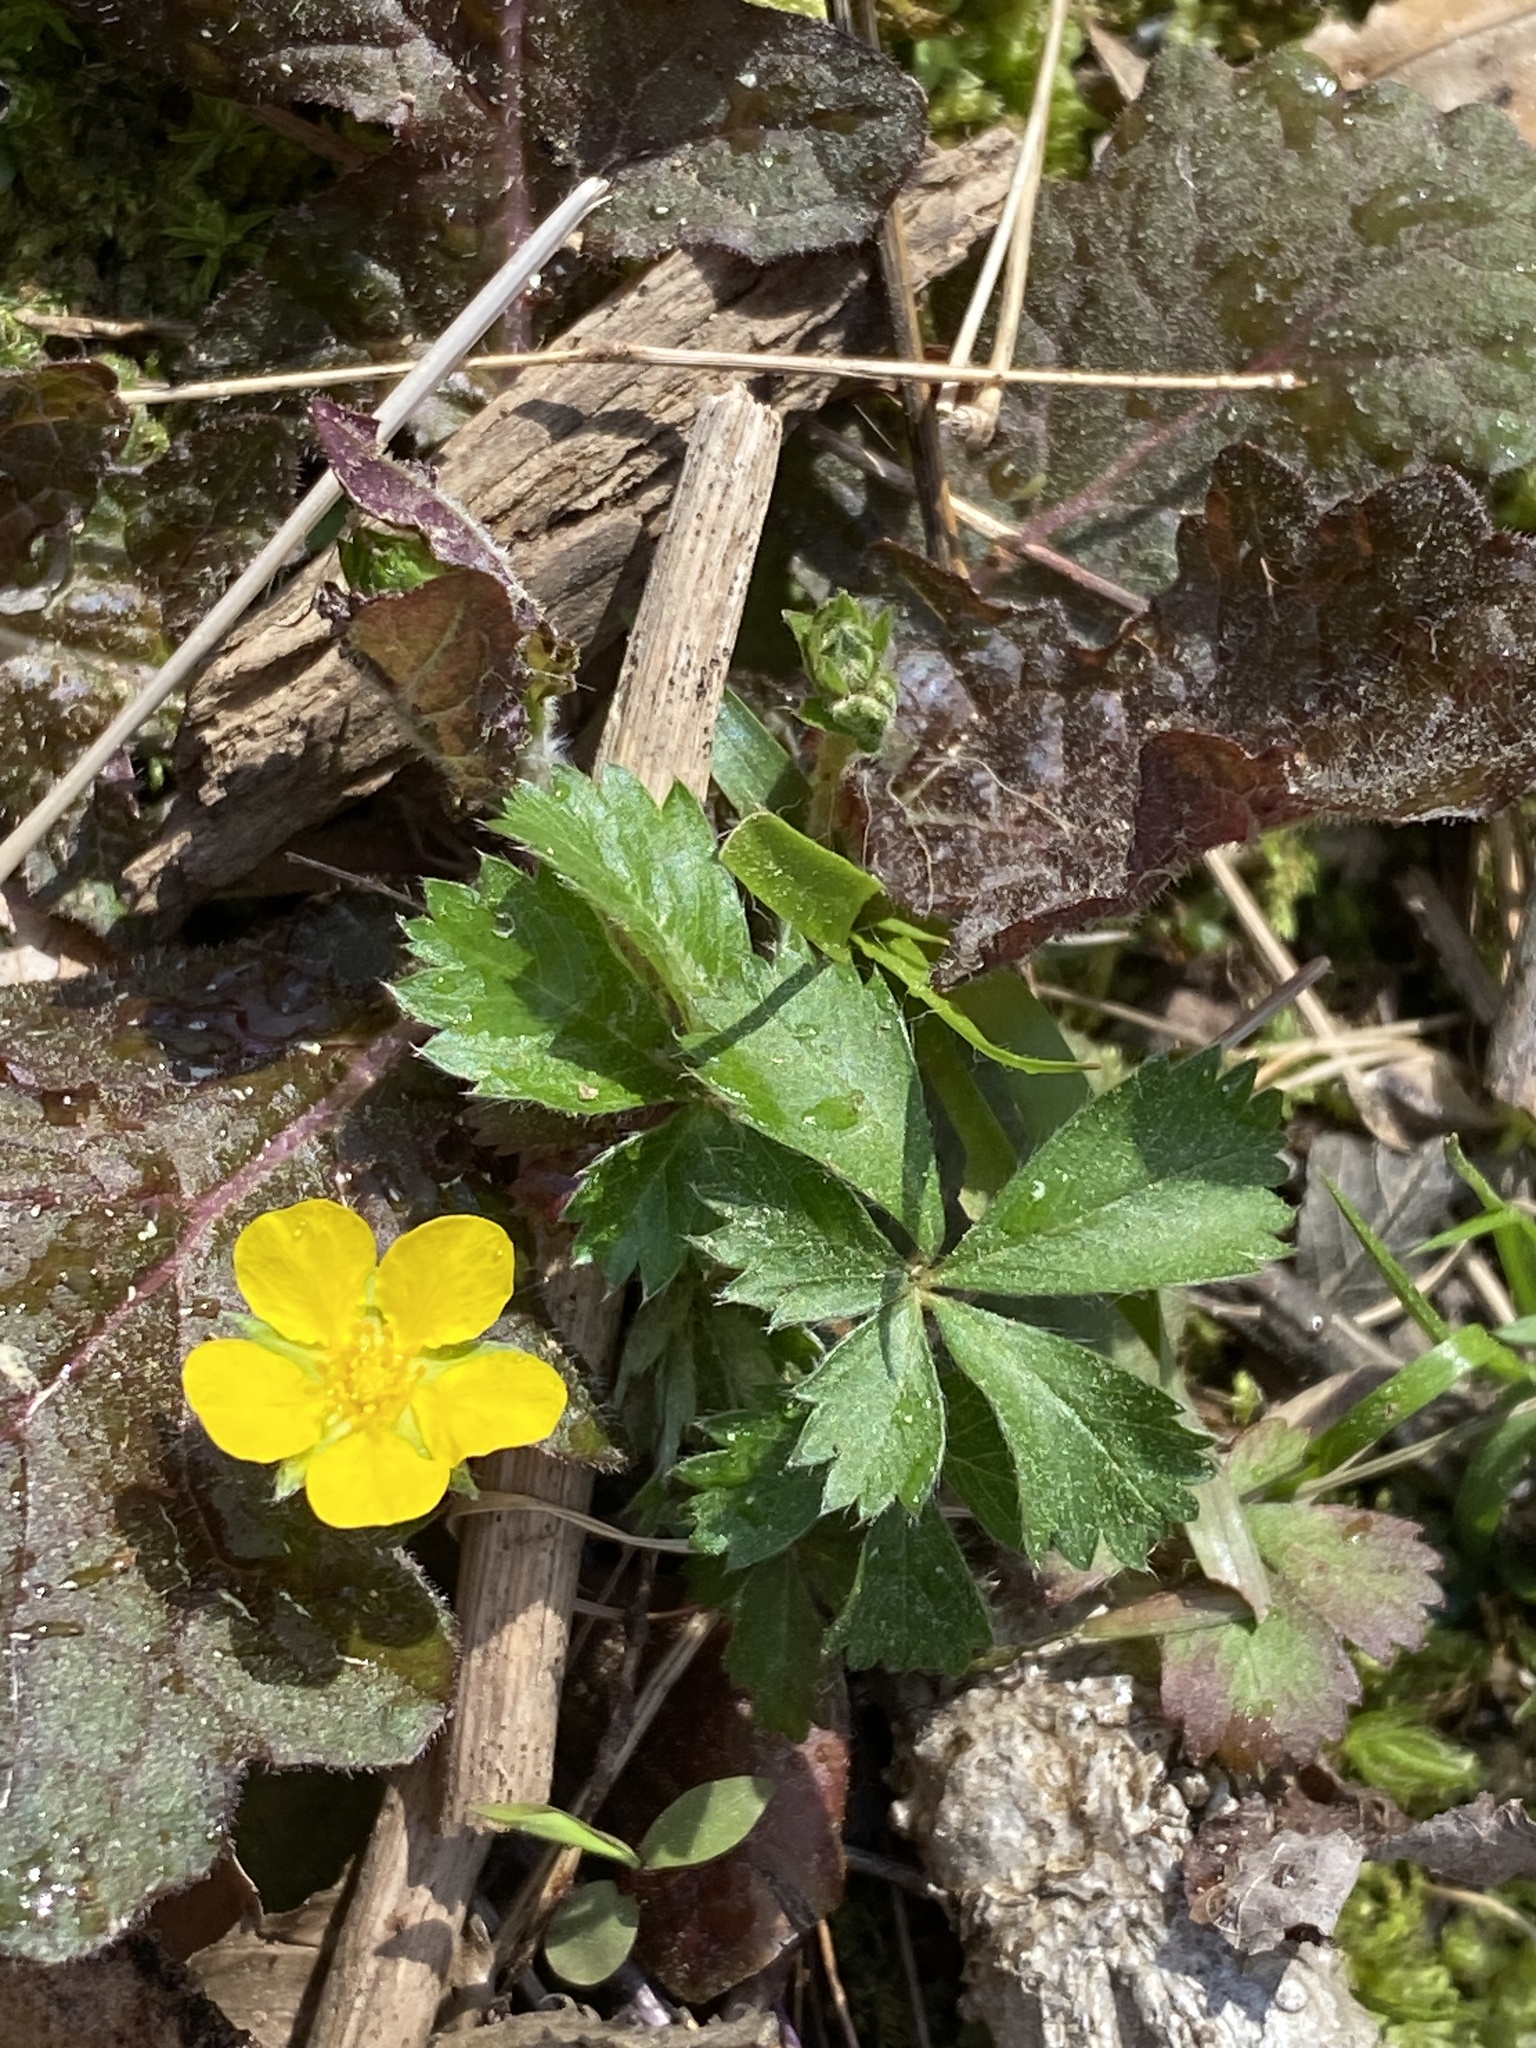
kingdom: Plantae
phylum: Tracheophyta
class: Magnoliopsida
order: Rosales
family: Rosaceae
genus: Potentilla
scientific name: Potentilla canadensis
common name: Canada cinquefoil
